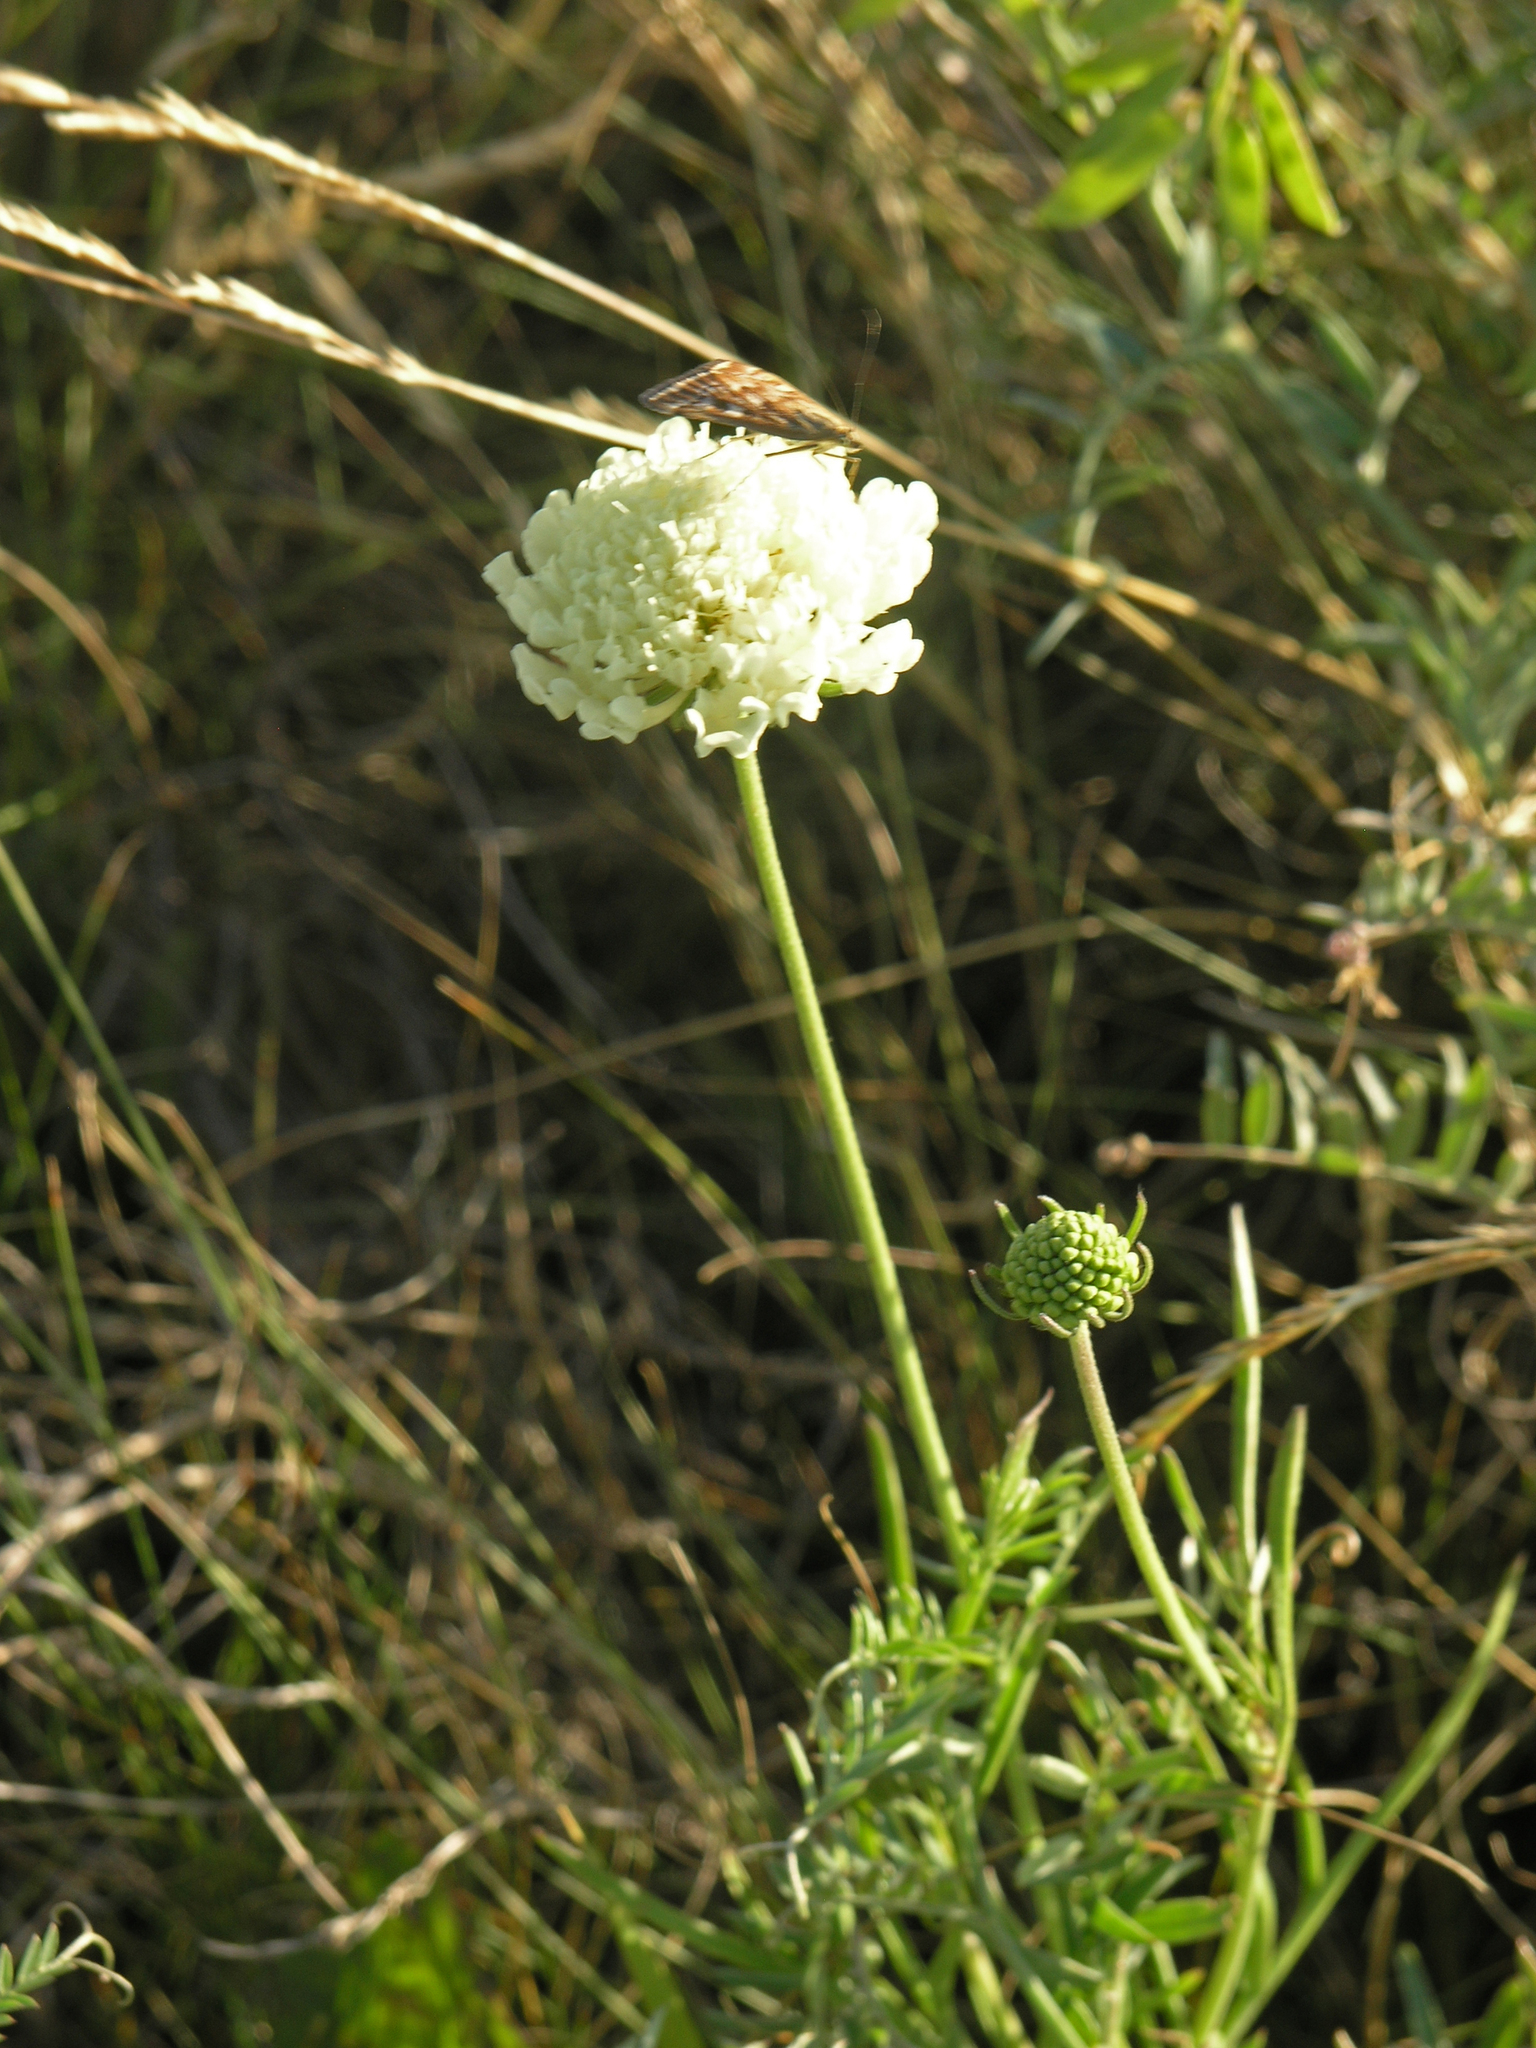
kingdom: Plantae
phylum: Tracheophyta
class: Magnoliopsida
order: Dipsacales
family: Caprifoliaceae
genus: Scabiosa
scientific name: Scabiosa ochroleuca
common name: Cream pincushions
